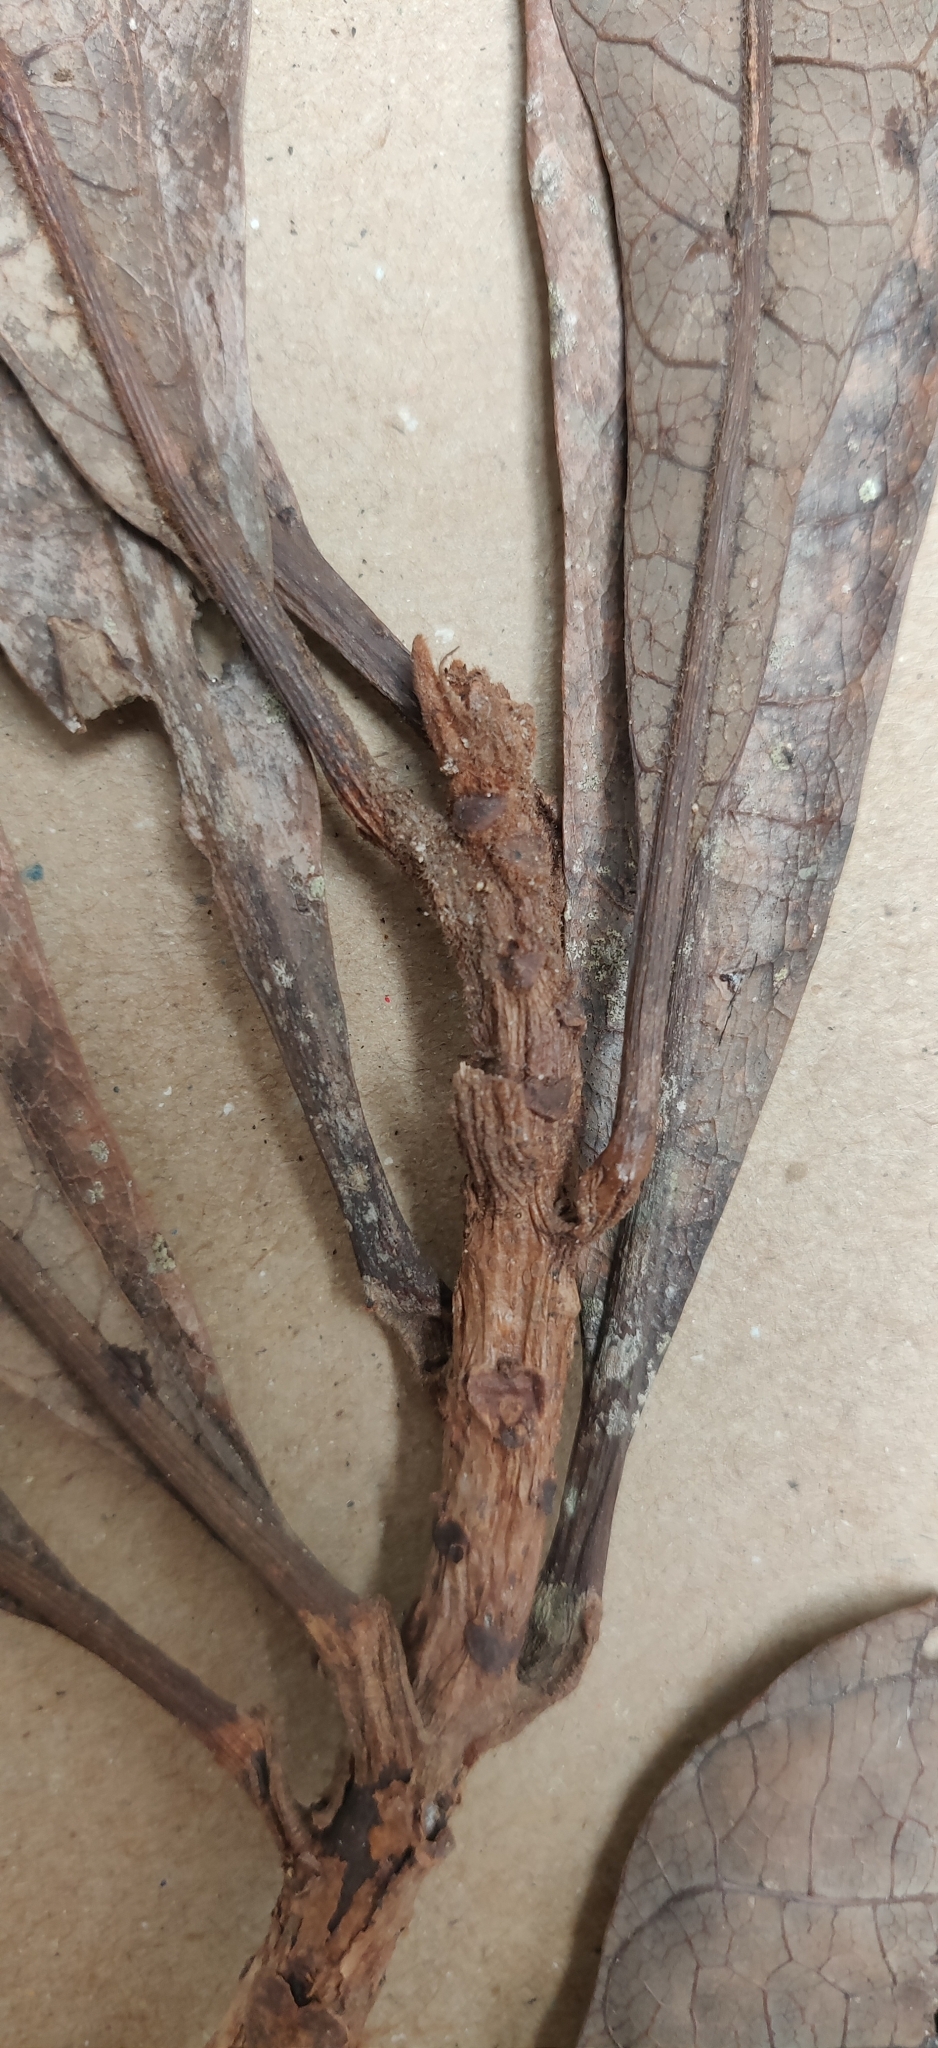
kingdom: Plantae
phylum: Tracheophyta
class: Magnoliopsida
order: Sapindales
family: Anacardiaceae
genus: Holigarna
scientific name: Holigarna arnottiana
